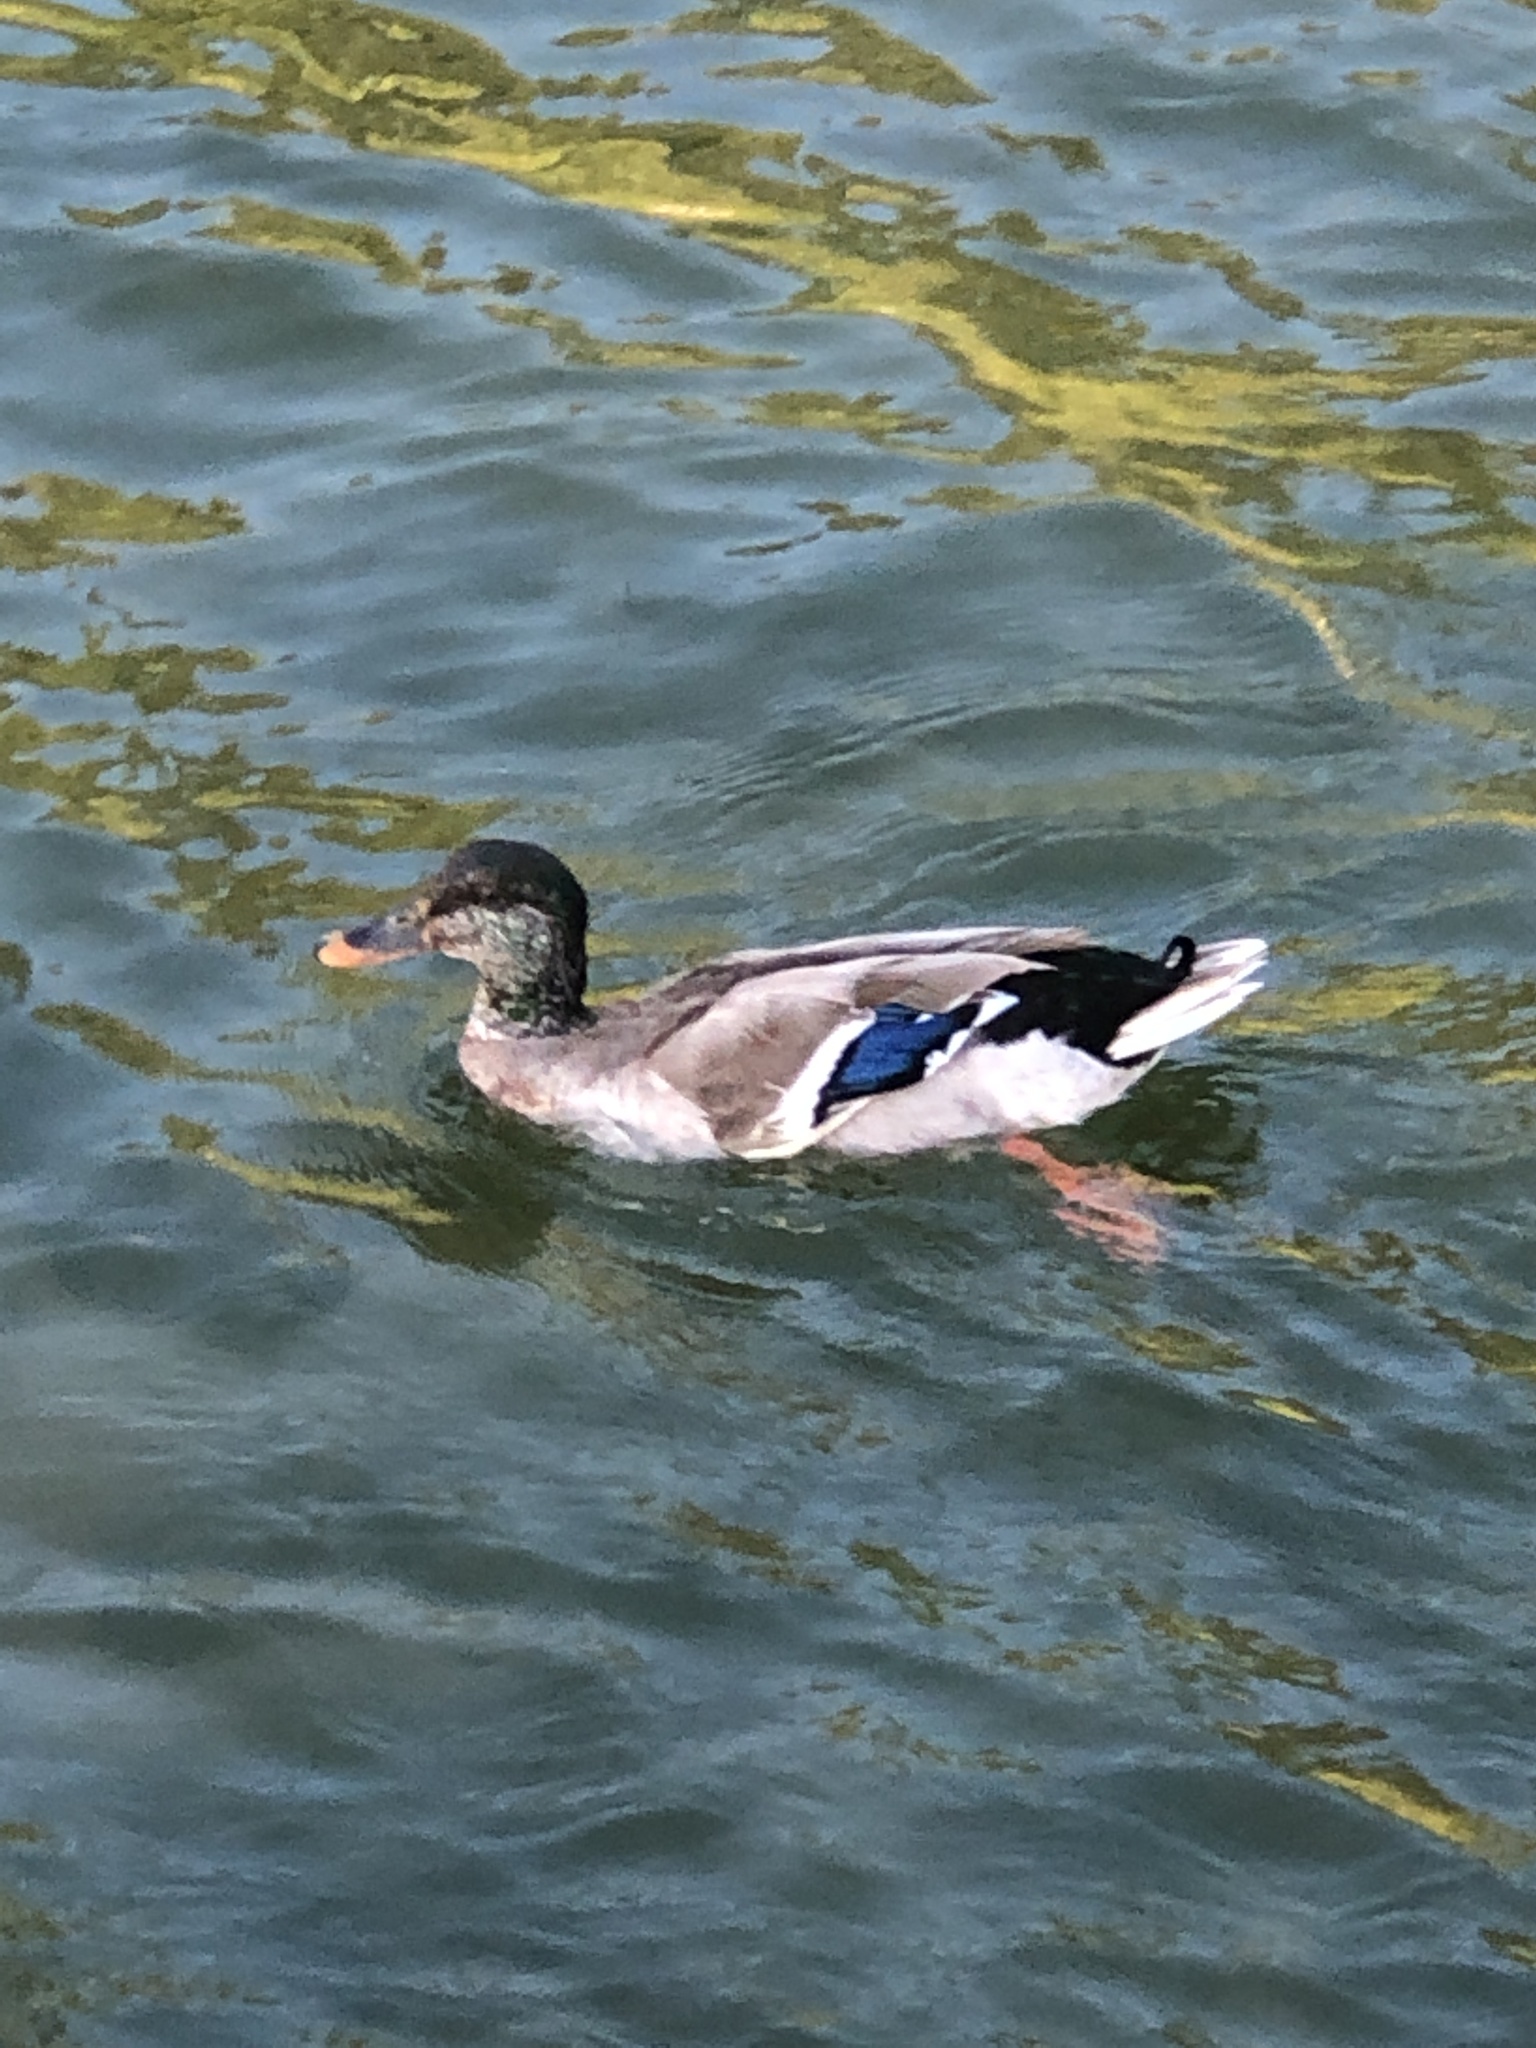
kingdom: Animalia
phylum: Chordata
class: Aves
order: Anseriformes
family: Anatidae
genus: Anas
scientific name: Anas platyrhynchos
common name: Mallard
